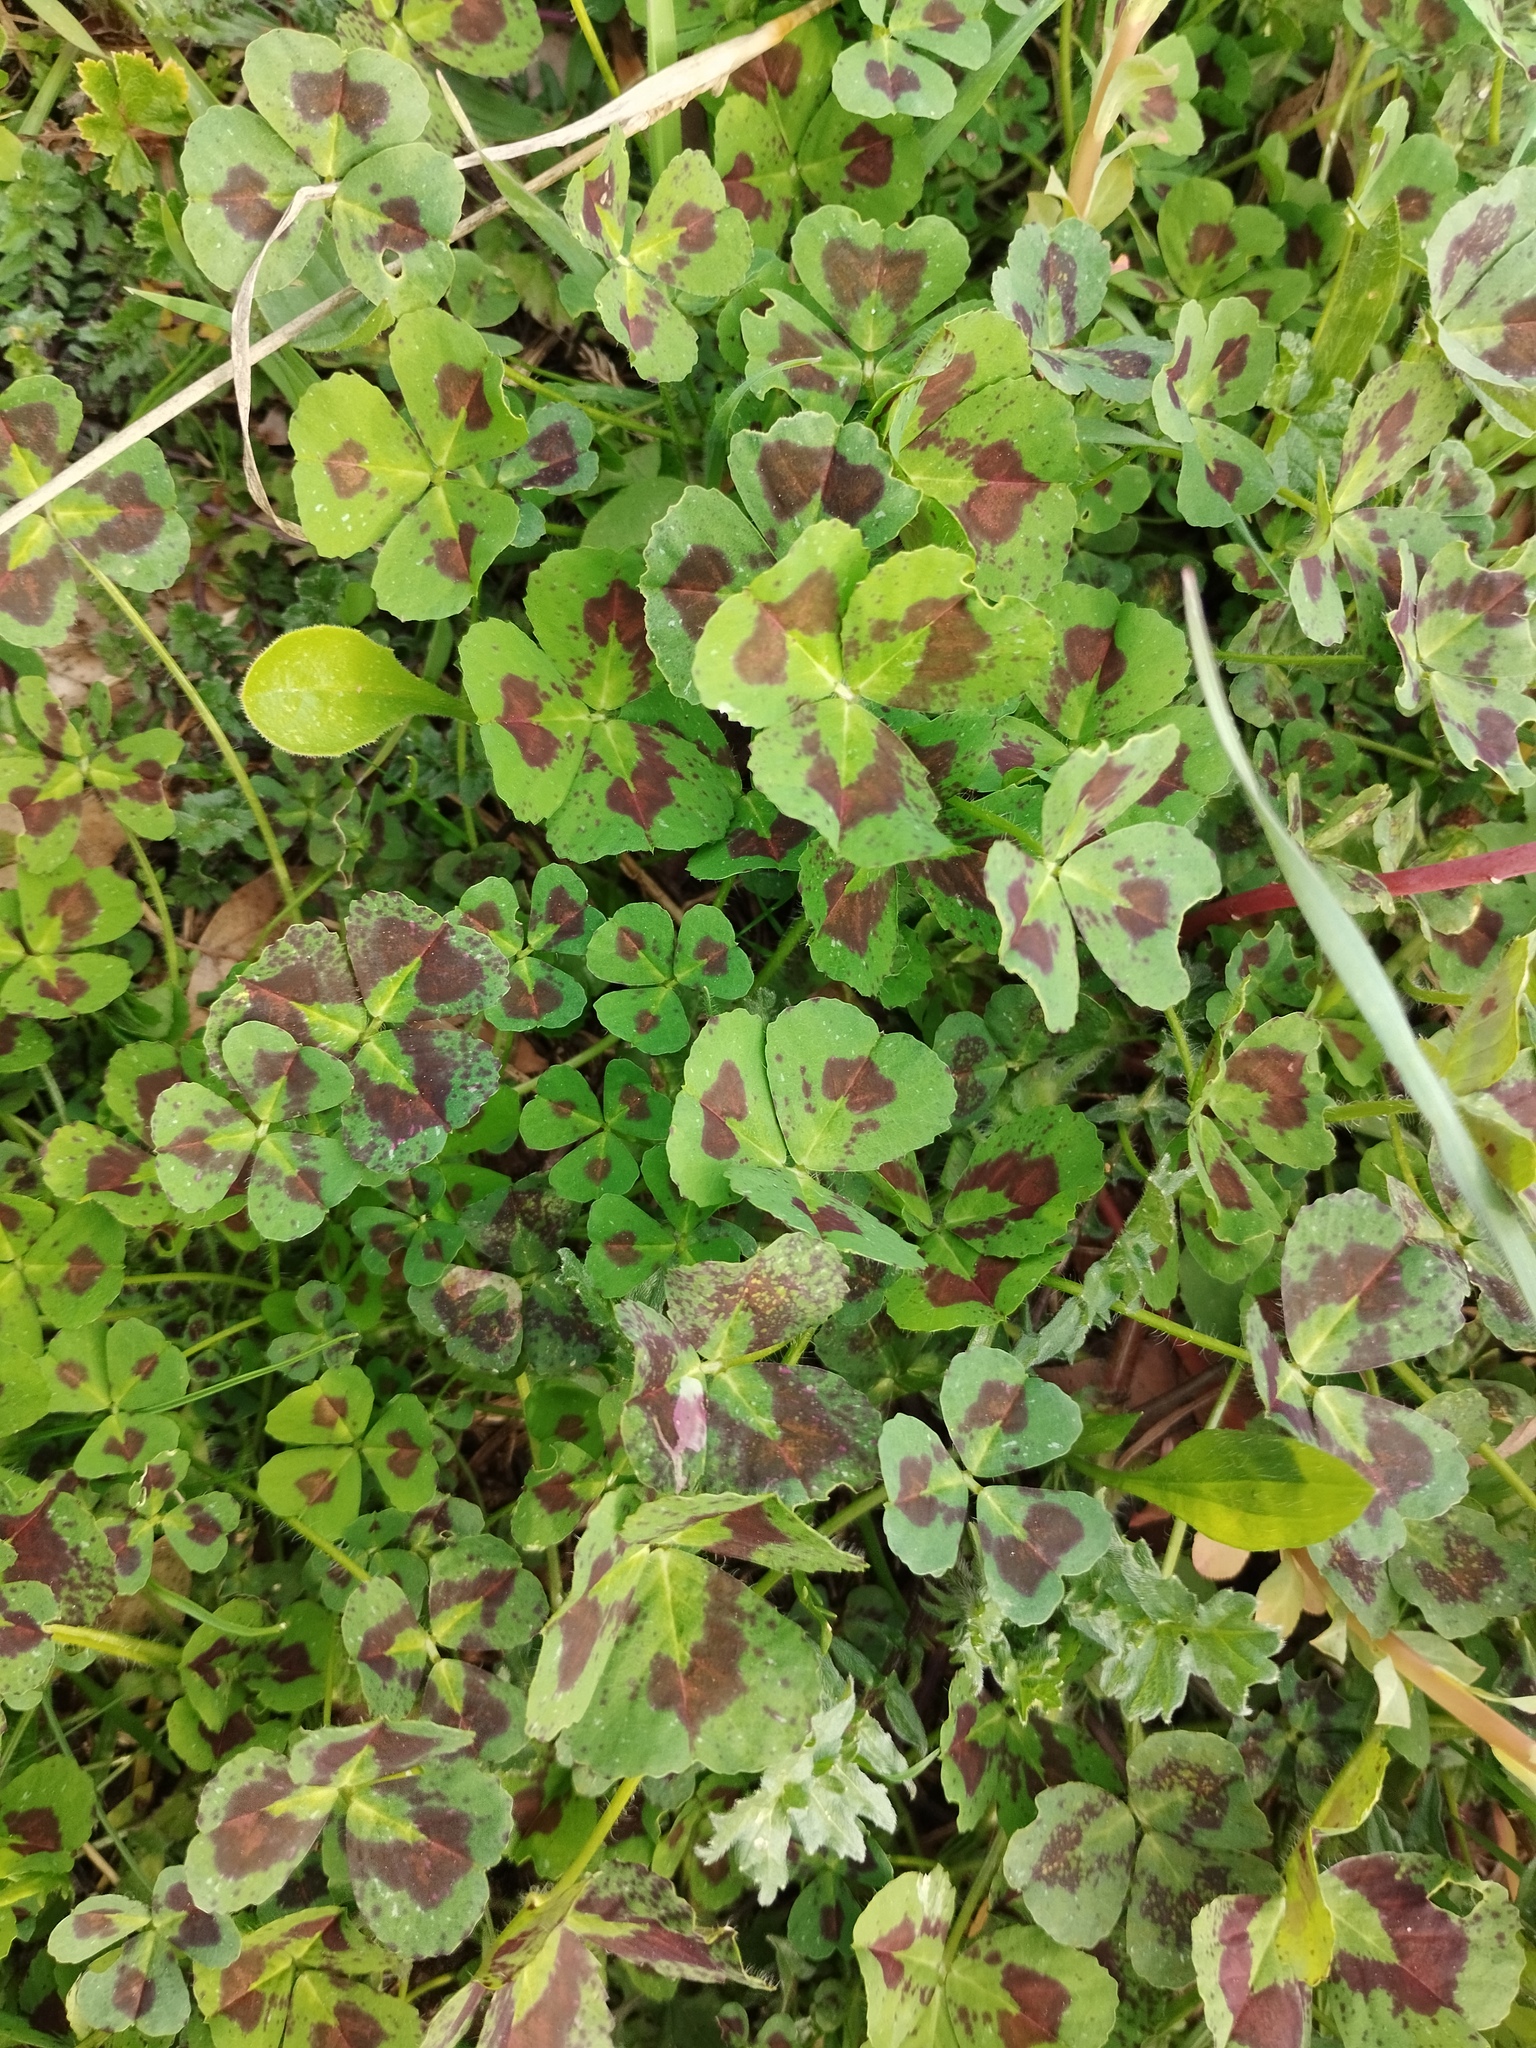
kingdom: Plantae
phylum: Tracheophyta
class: Magnoliopsida
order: Fabales
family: Fabaceae
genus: Medicago
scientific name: Medicago arabica
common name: Spotted medick
